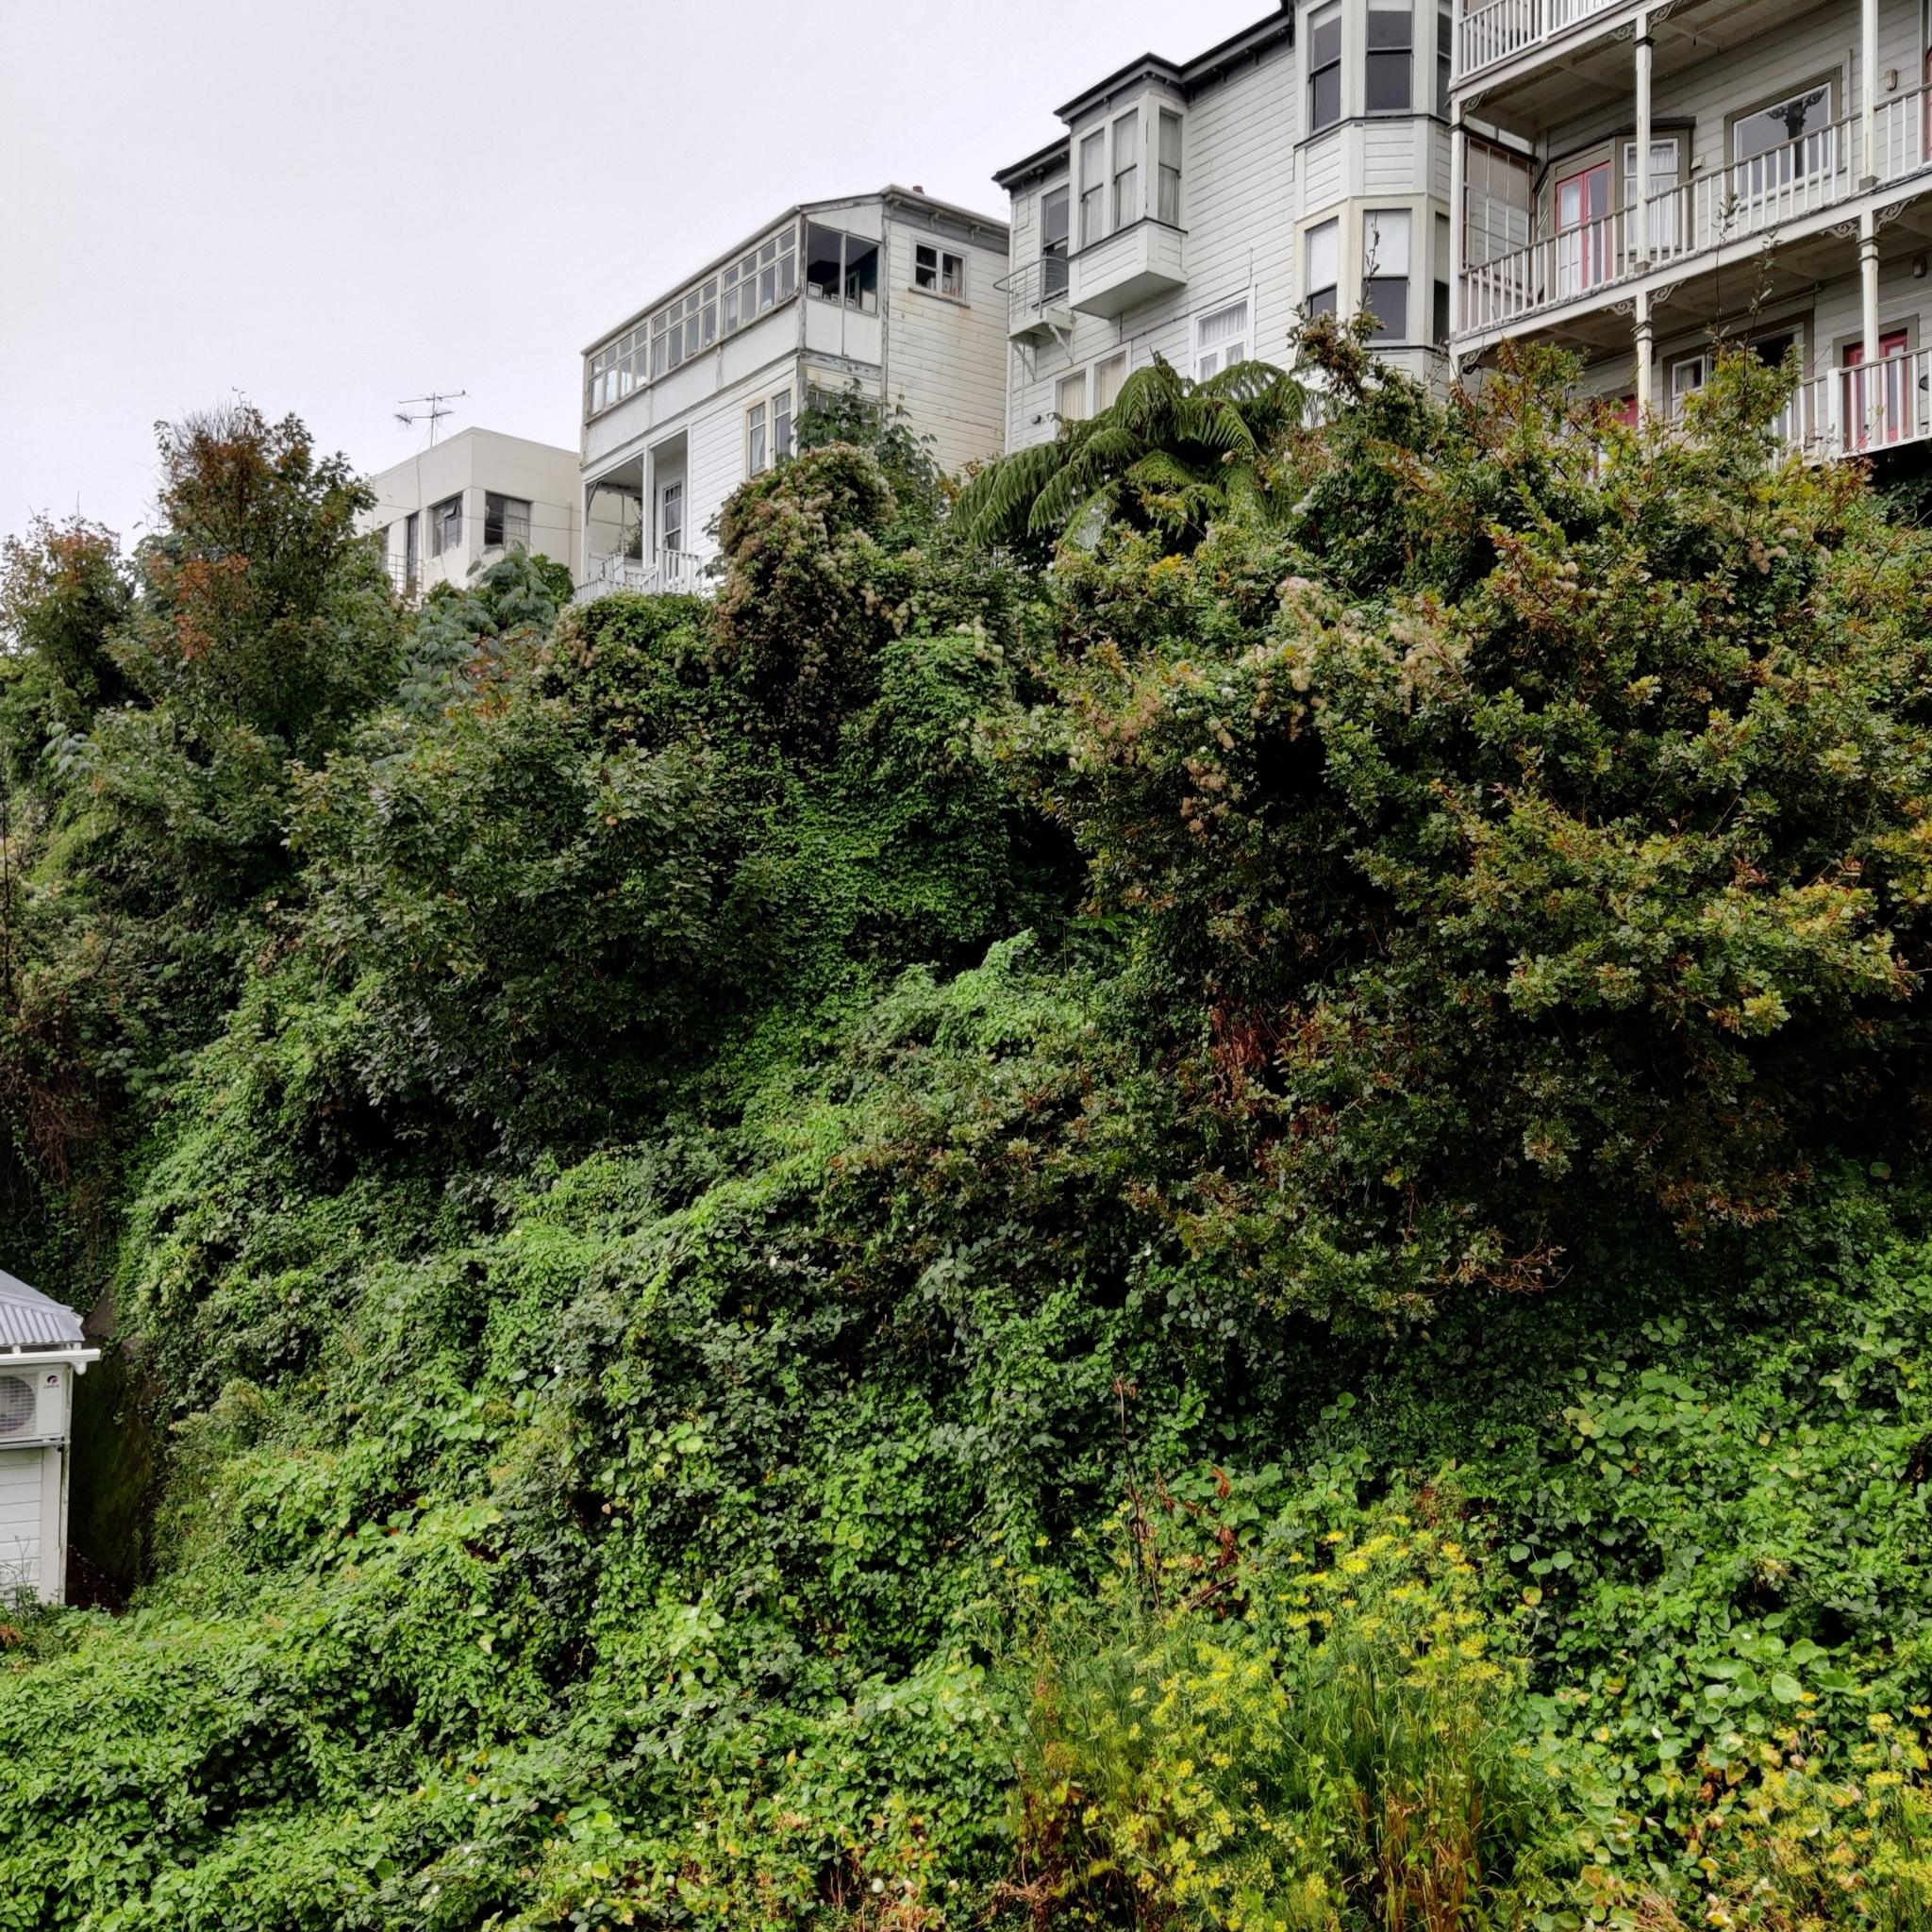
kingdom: Plantae
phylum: Tracheophyta
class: Magnoliopsida
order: Ranunculales
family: Ranunculaceae
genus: Clematis
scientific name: Clematis vitalba
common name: Evergreen clematis
